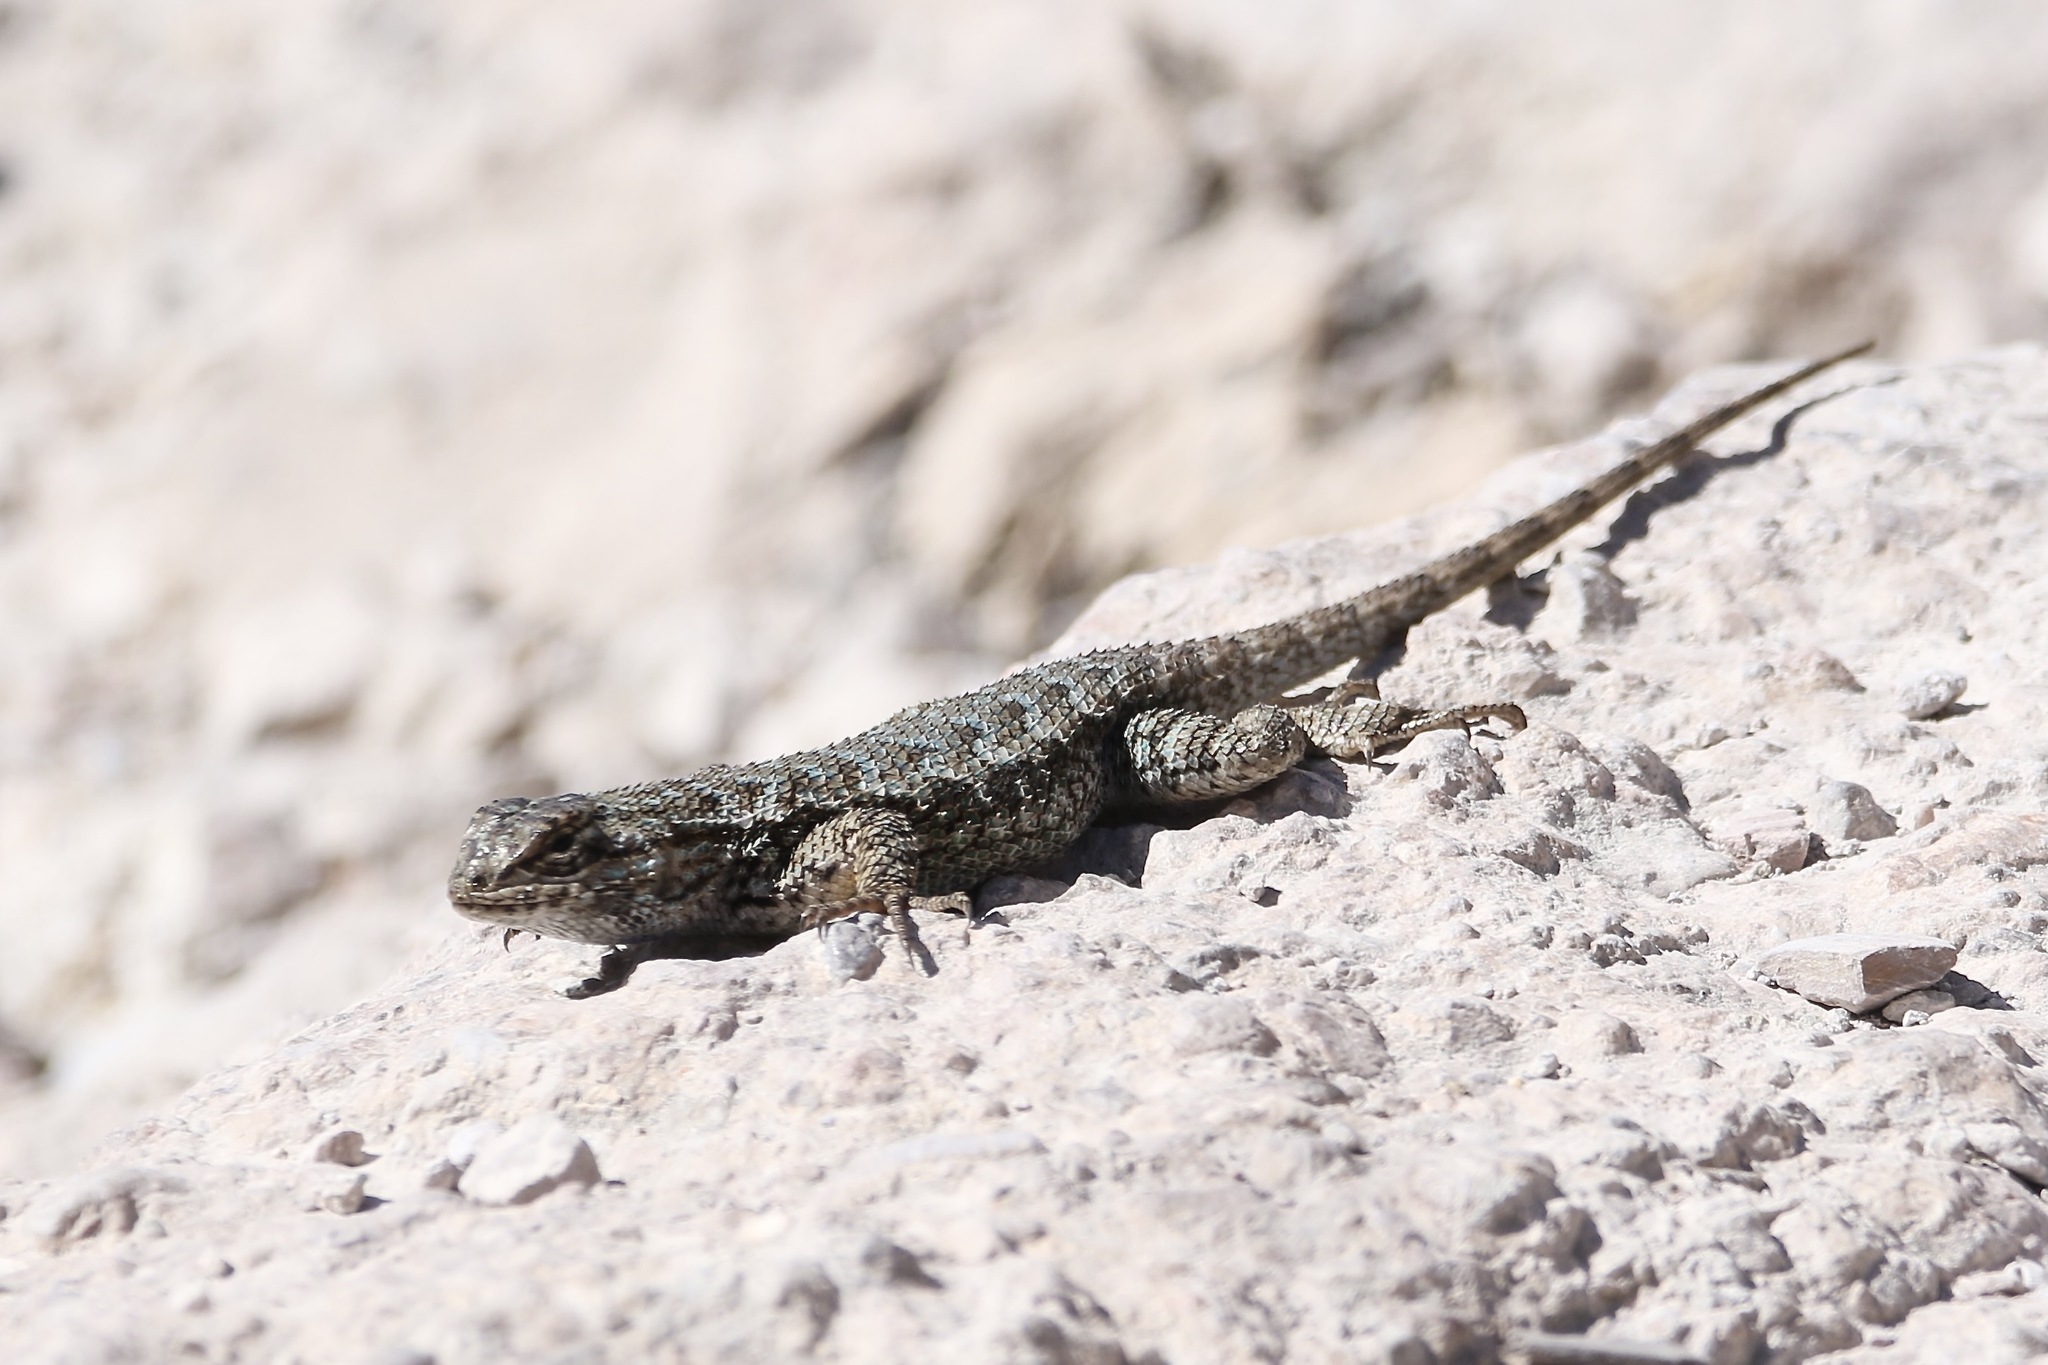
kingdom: Animalia
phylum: Chordata
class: Squamata
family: Phrynosomatidae
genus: Sceloporus
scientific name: Sceloporus occidentalis
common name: Western fence lizard
